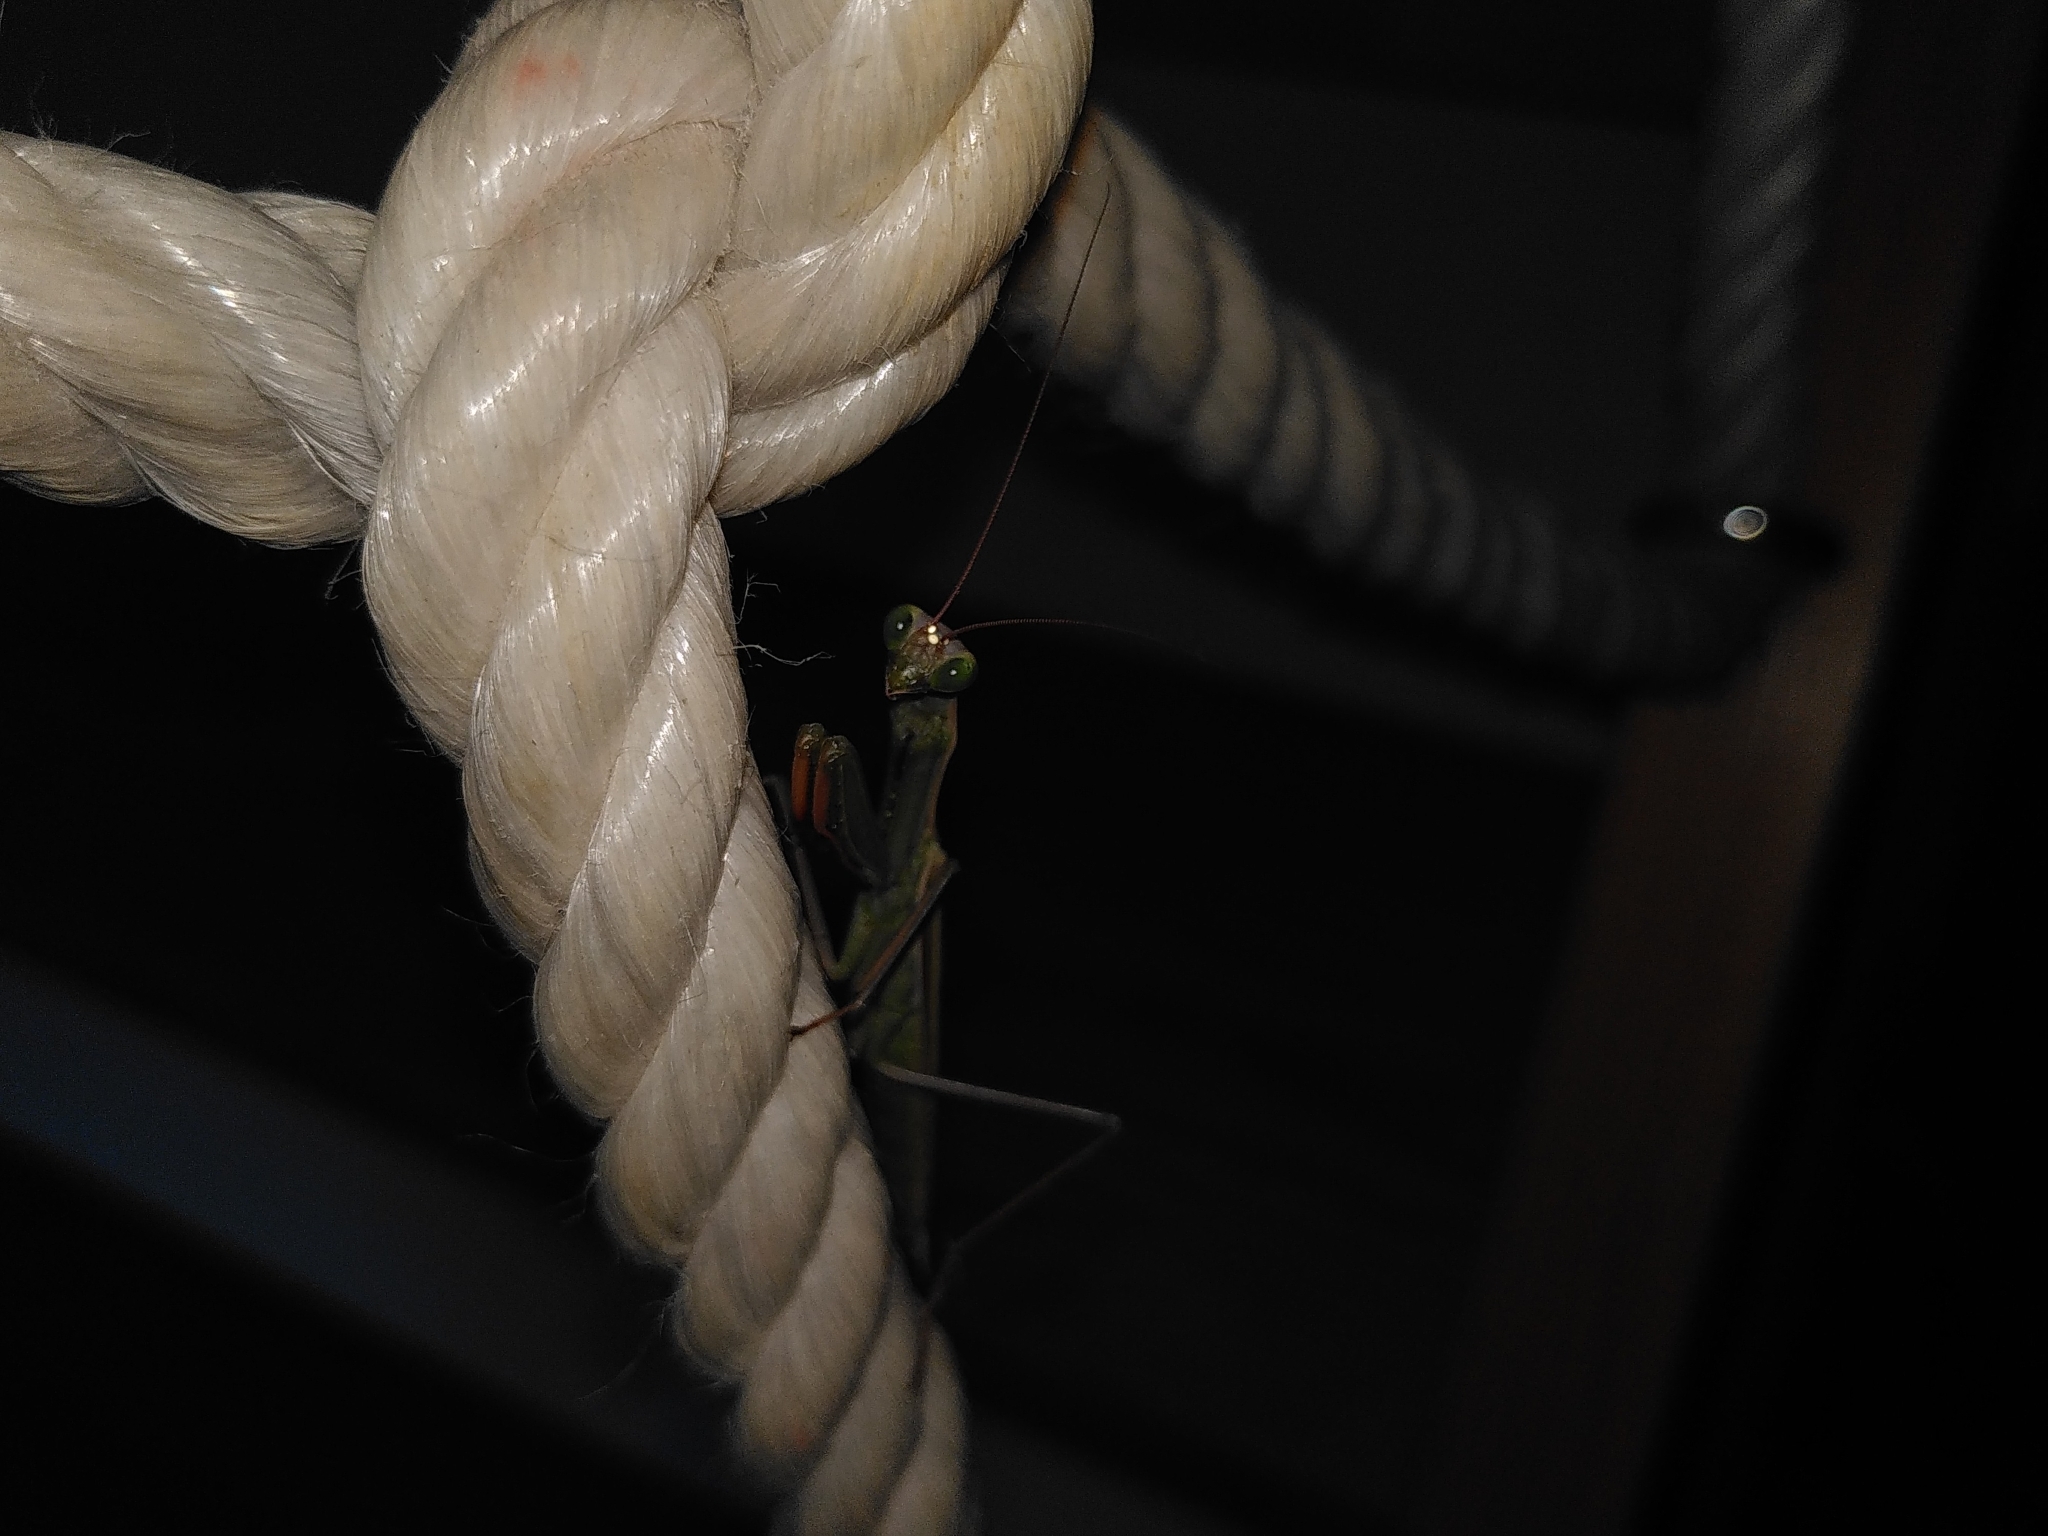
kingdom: Animalia
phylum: Arthropoda
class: Insecta
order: Mantodea
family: Mantidae
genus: Mantis
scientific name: Mantis religiosa
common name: Praying mantis
